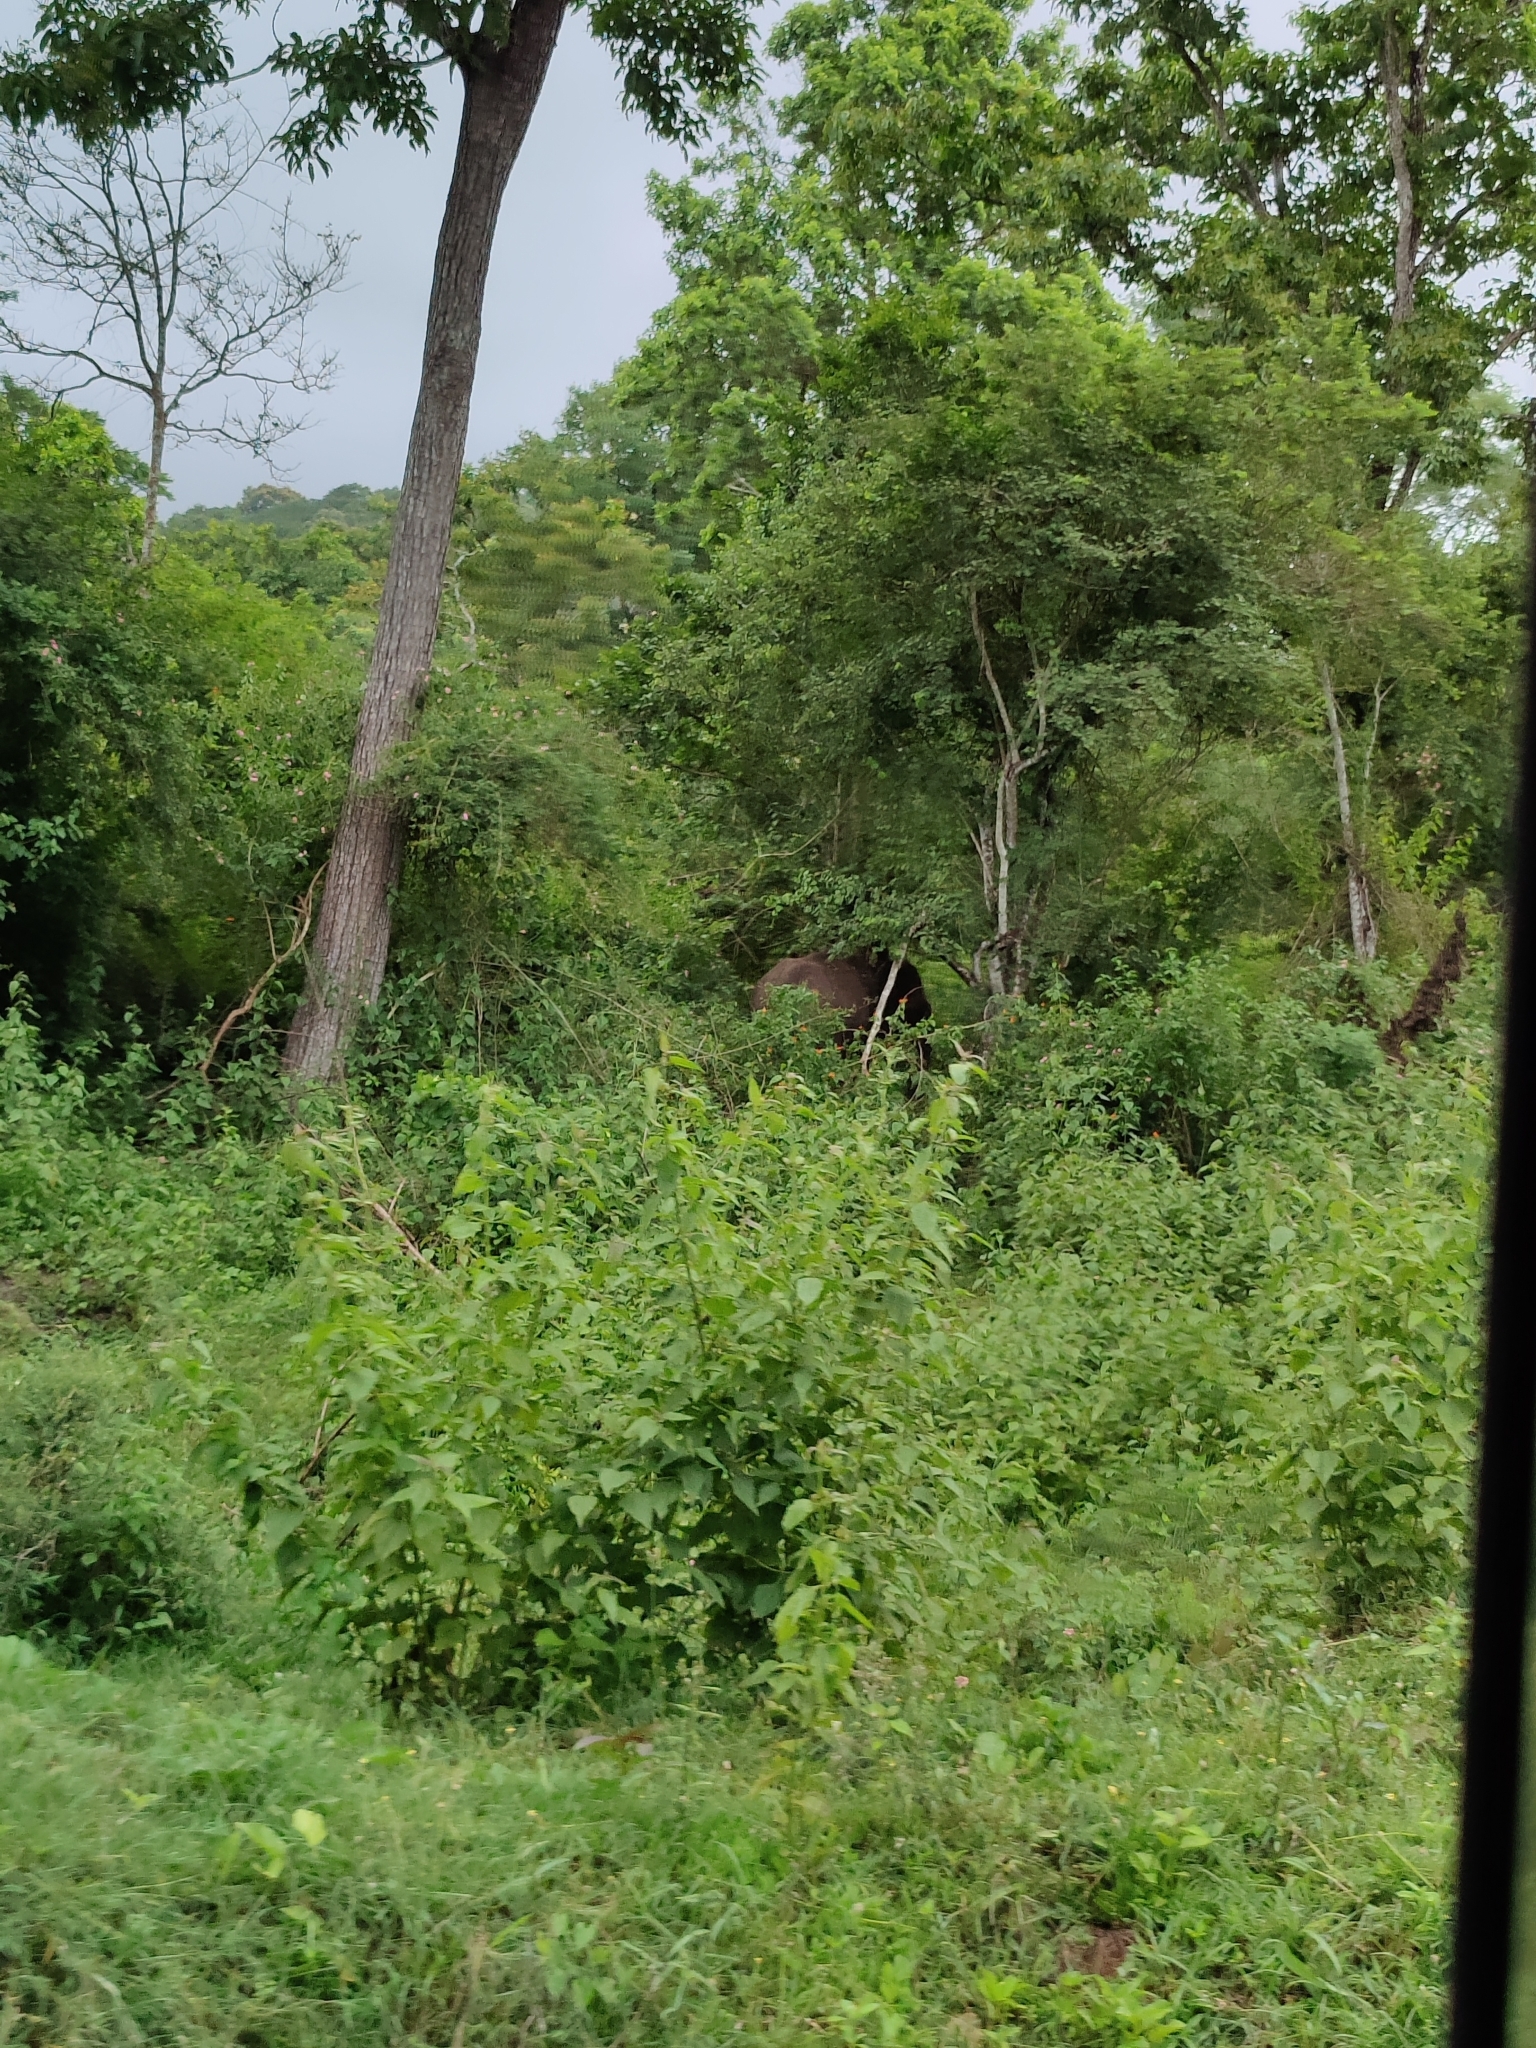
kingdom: Animalia
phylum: Chordata
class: Mammalia
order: Proboscidea
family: Elephantidae
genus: Elephas
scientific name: Elephas maximus
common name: Asian elephant
